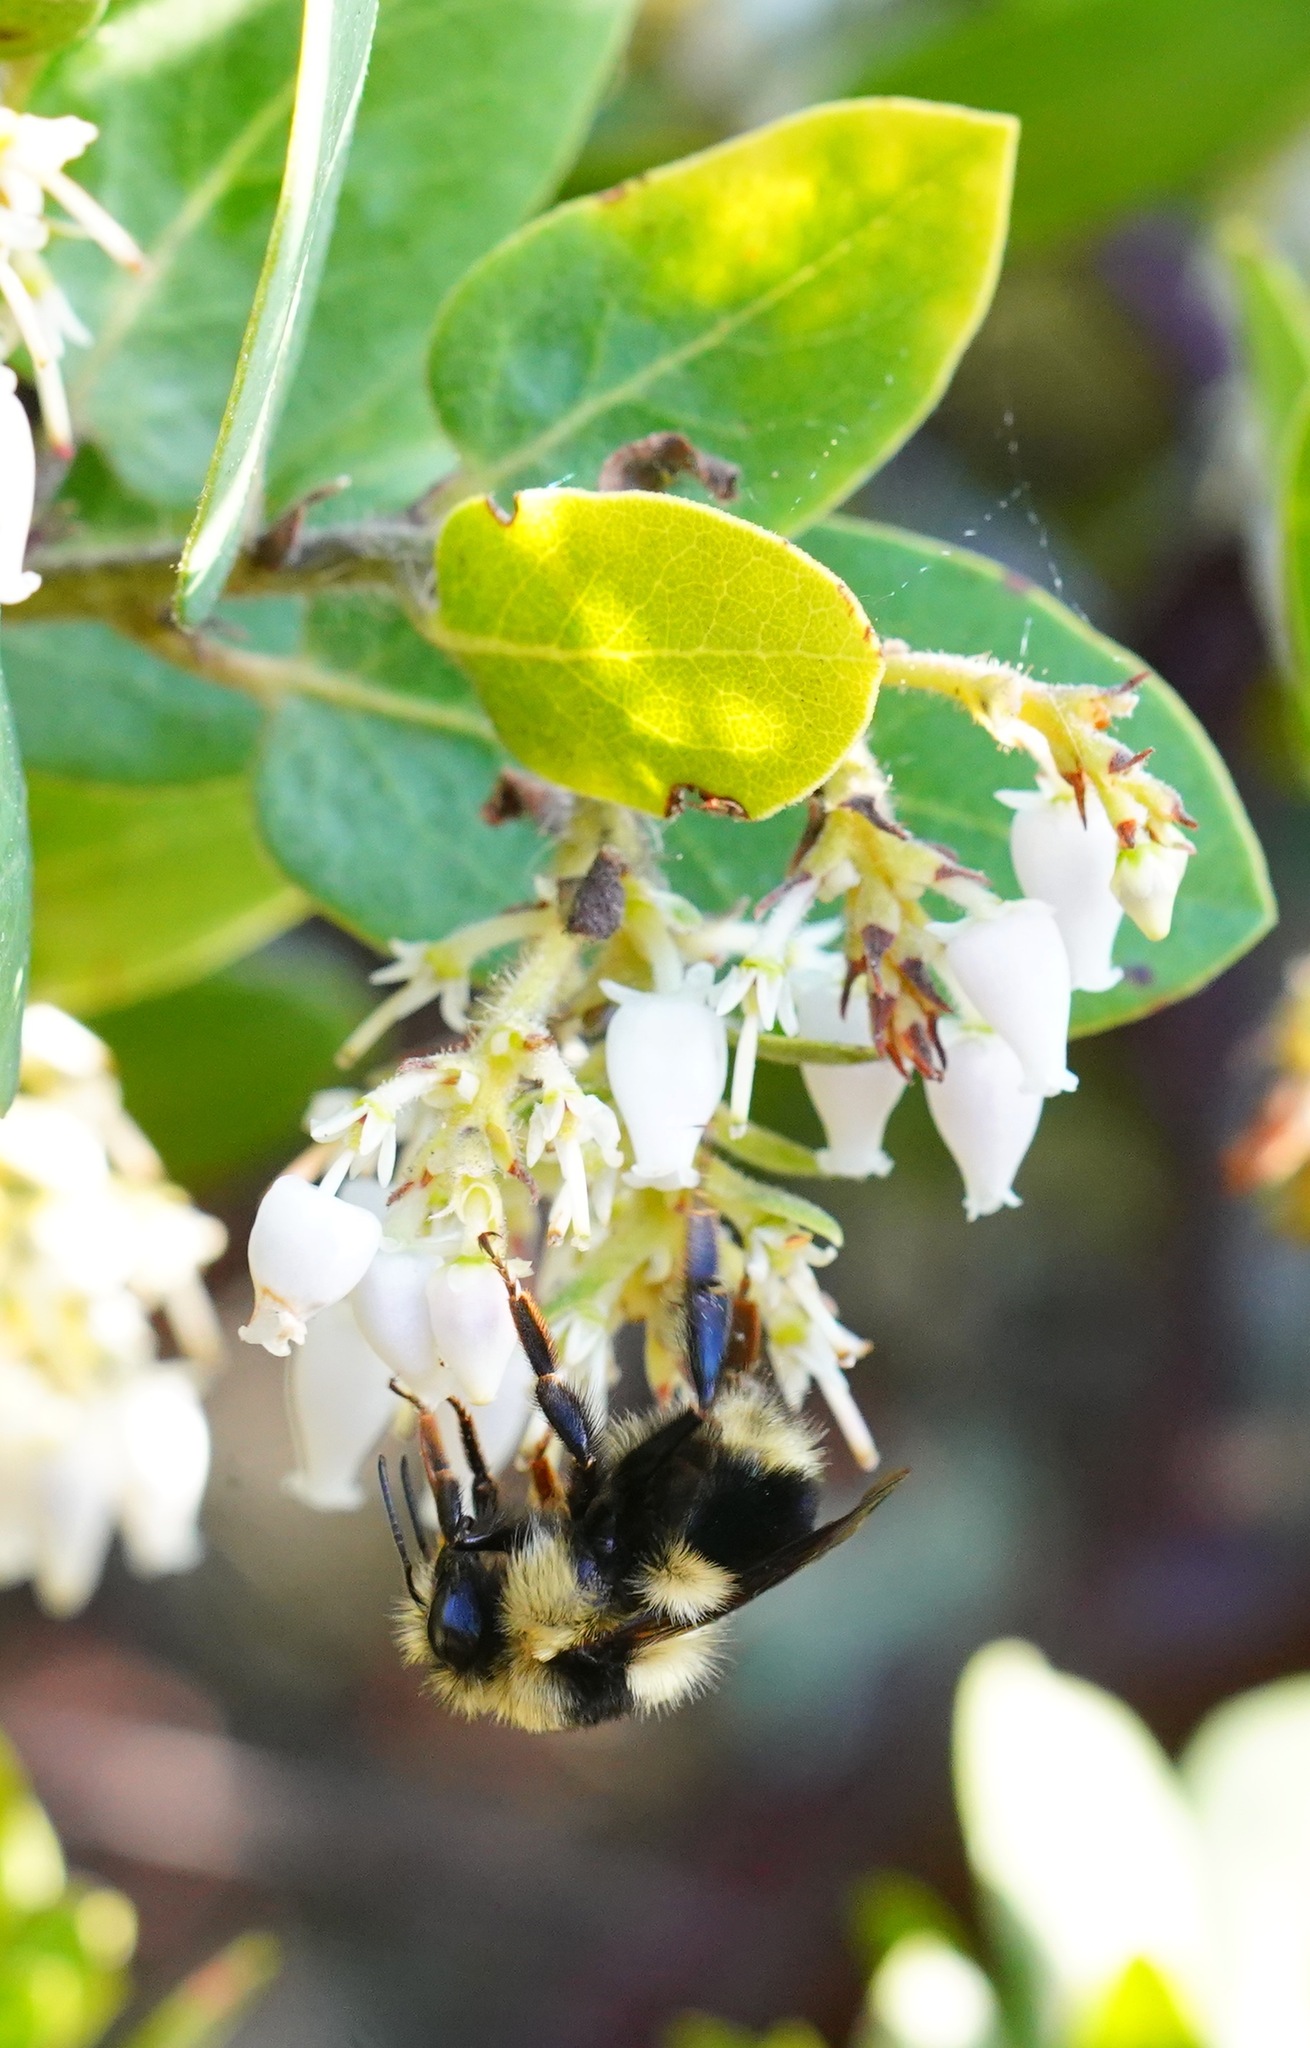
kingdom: Animalia
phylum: Arthropoda
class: Insecta
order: Hymenoptera
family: Apidae
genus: Bombus
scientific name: Bombus melanopygus
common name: Black tail bumble bee
